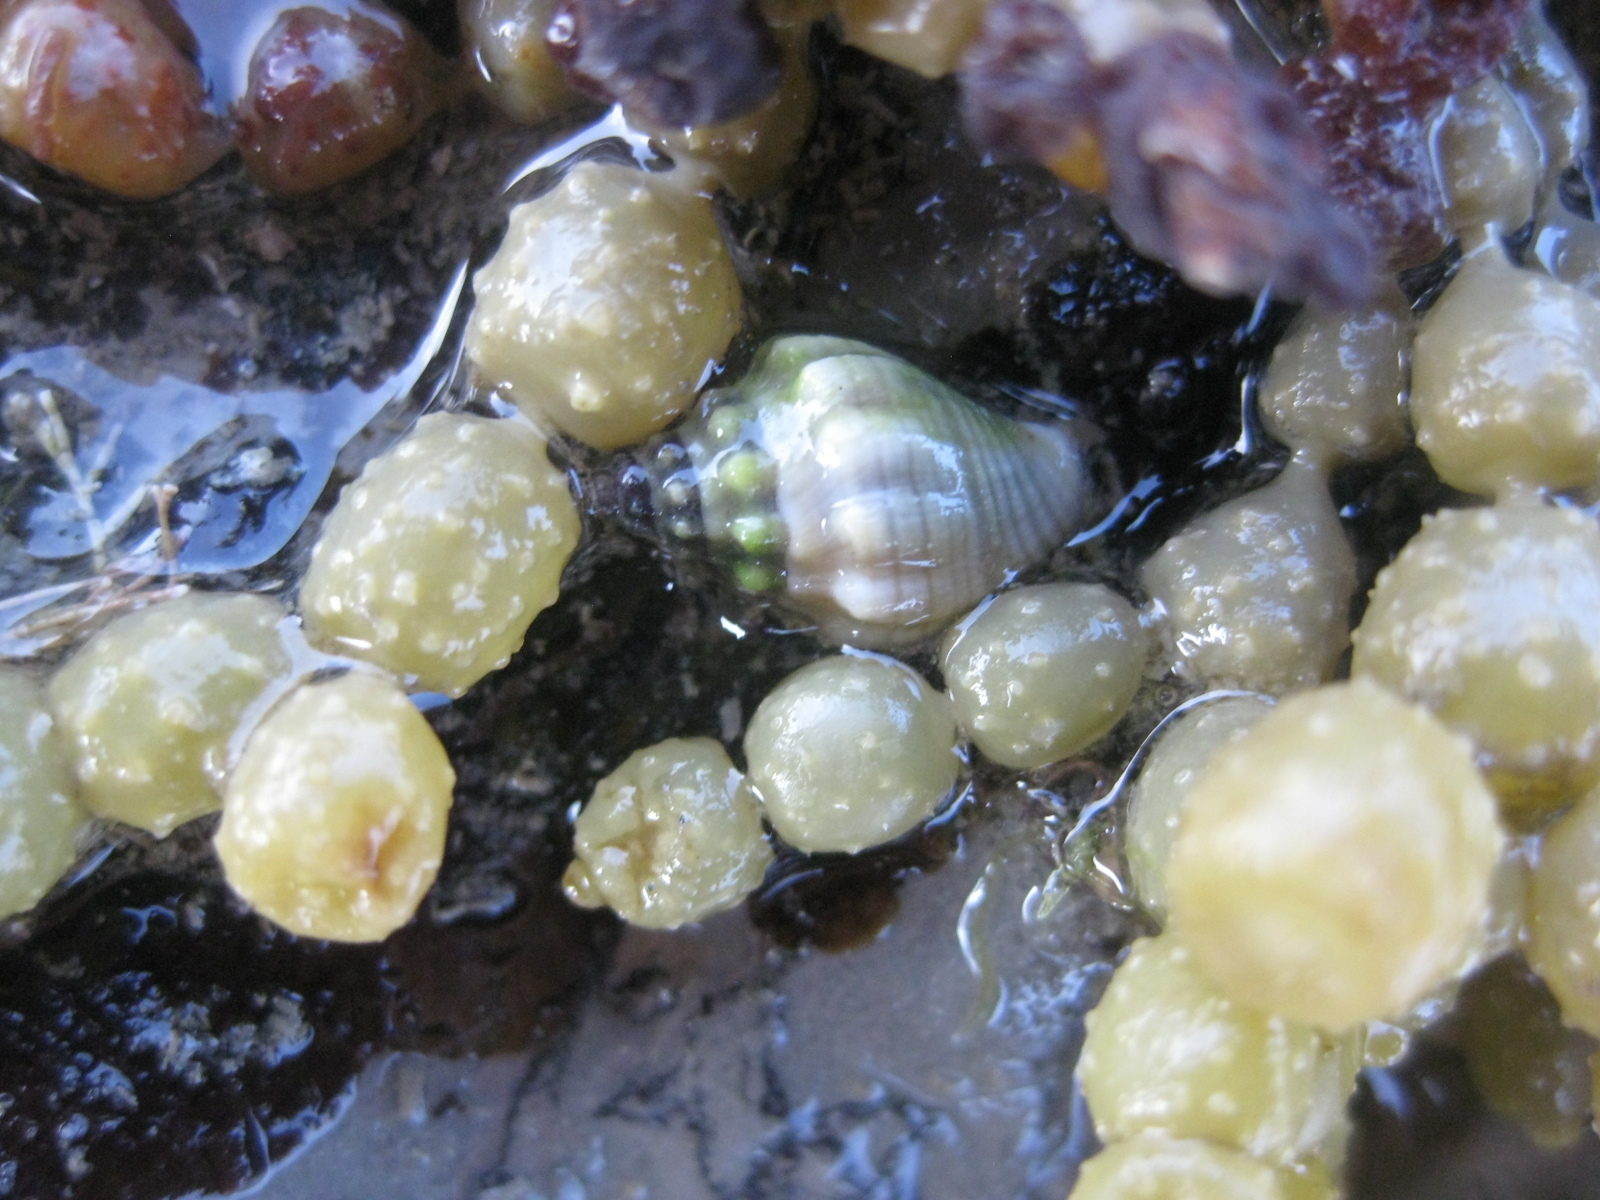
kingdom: Animalia
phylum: Mollusca
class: Gastropoda
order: Neogastropoda
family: Cominellidae
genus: Cominella
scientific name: Cominella glandiformis
